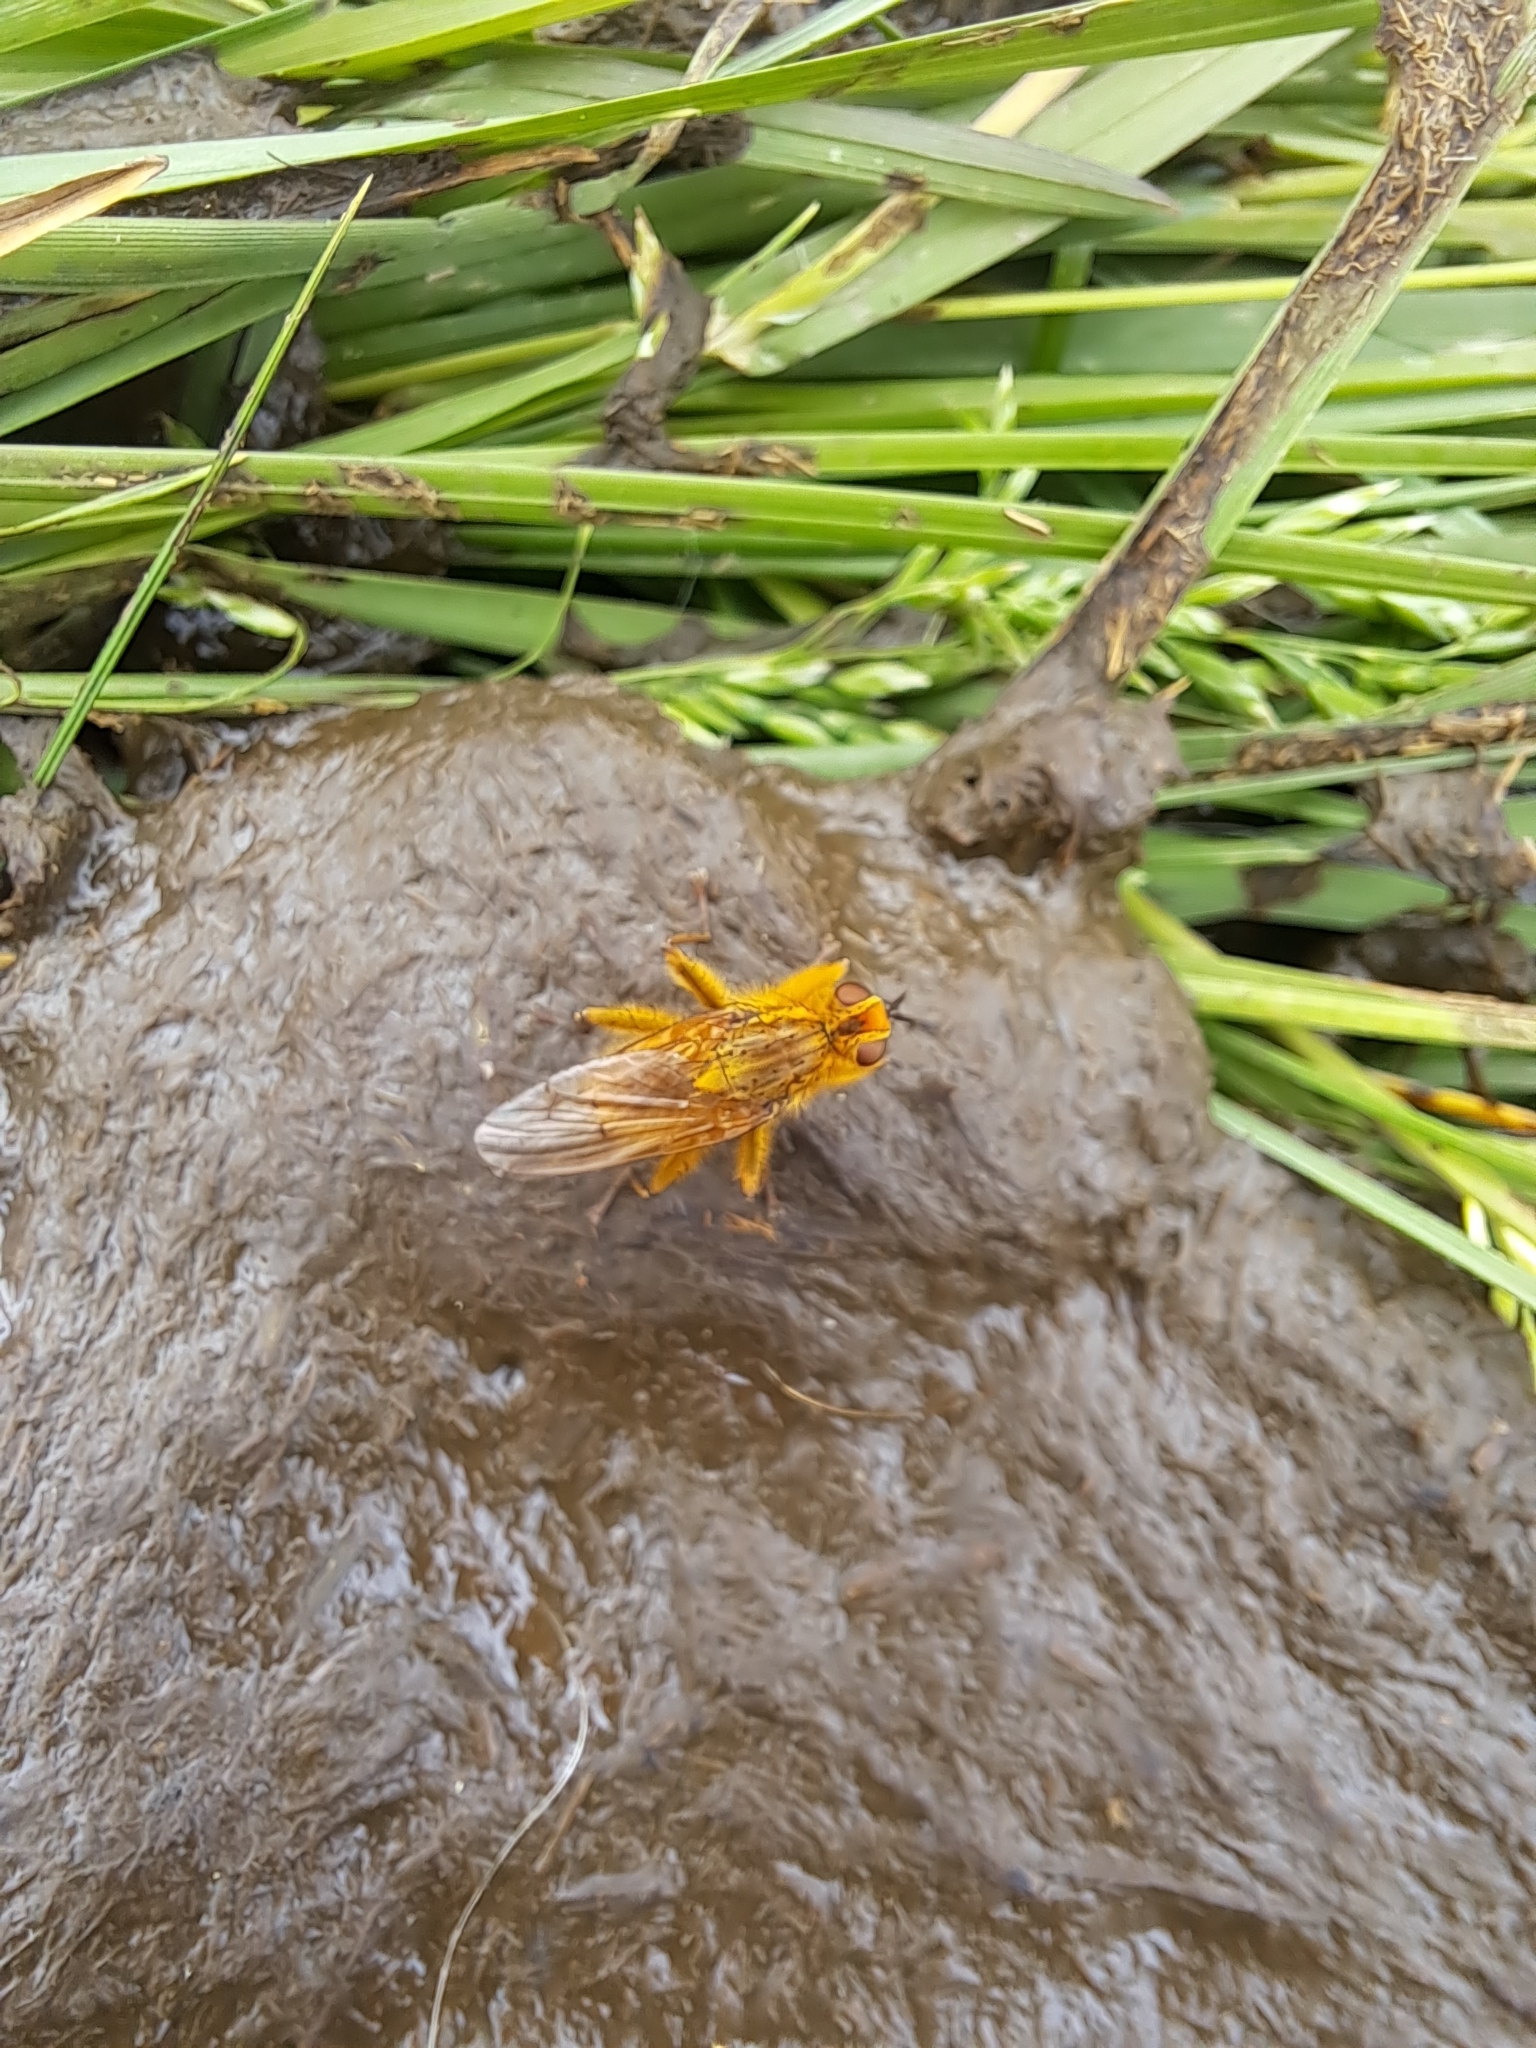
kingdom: Animalia
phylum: Arthropoda
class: Insecta
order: Diptera
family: Scathophagidae
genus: Scathophaga
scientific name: Scathophaga stercoraria
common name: Yellow dung fly
